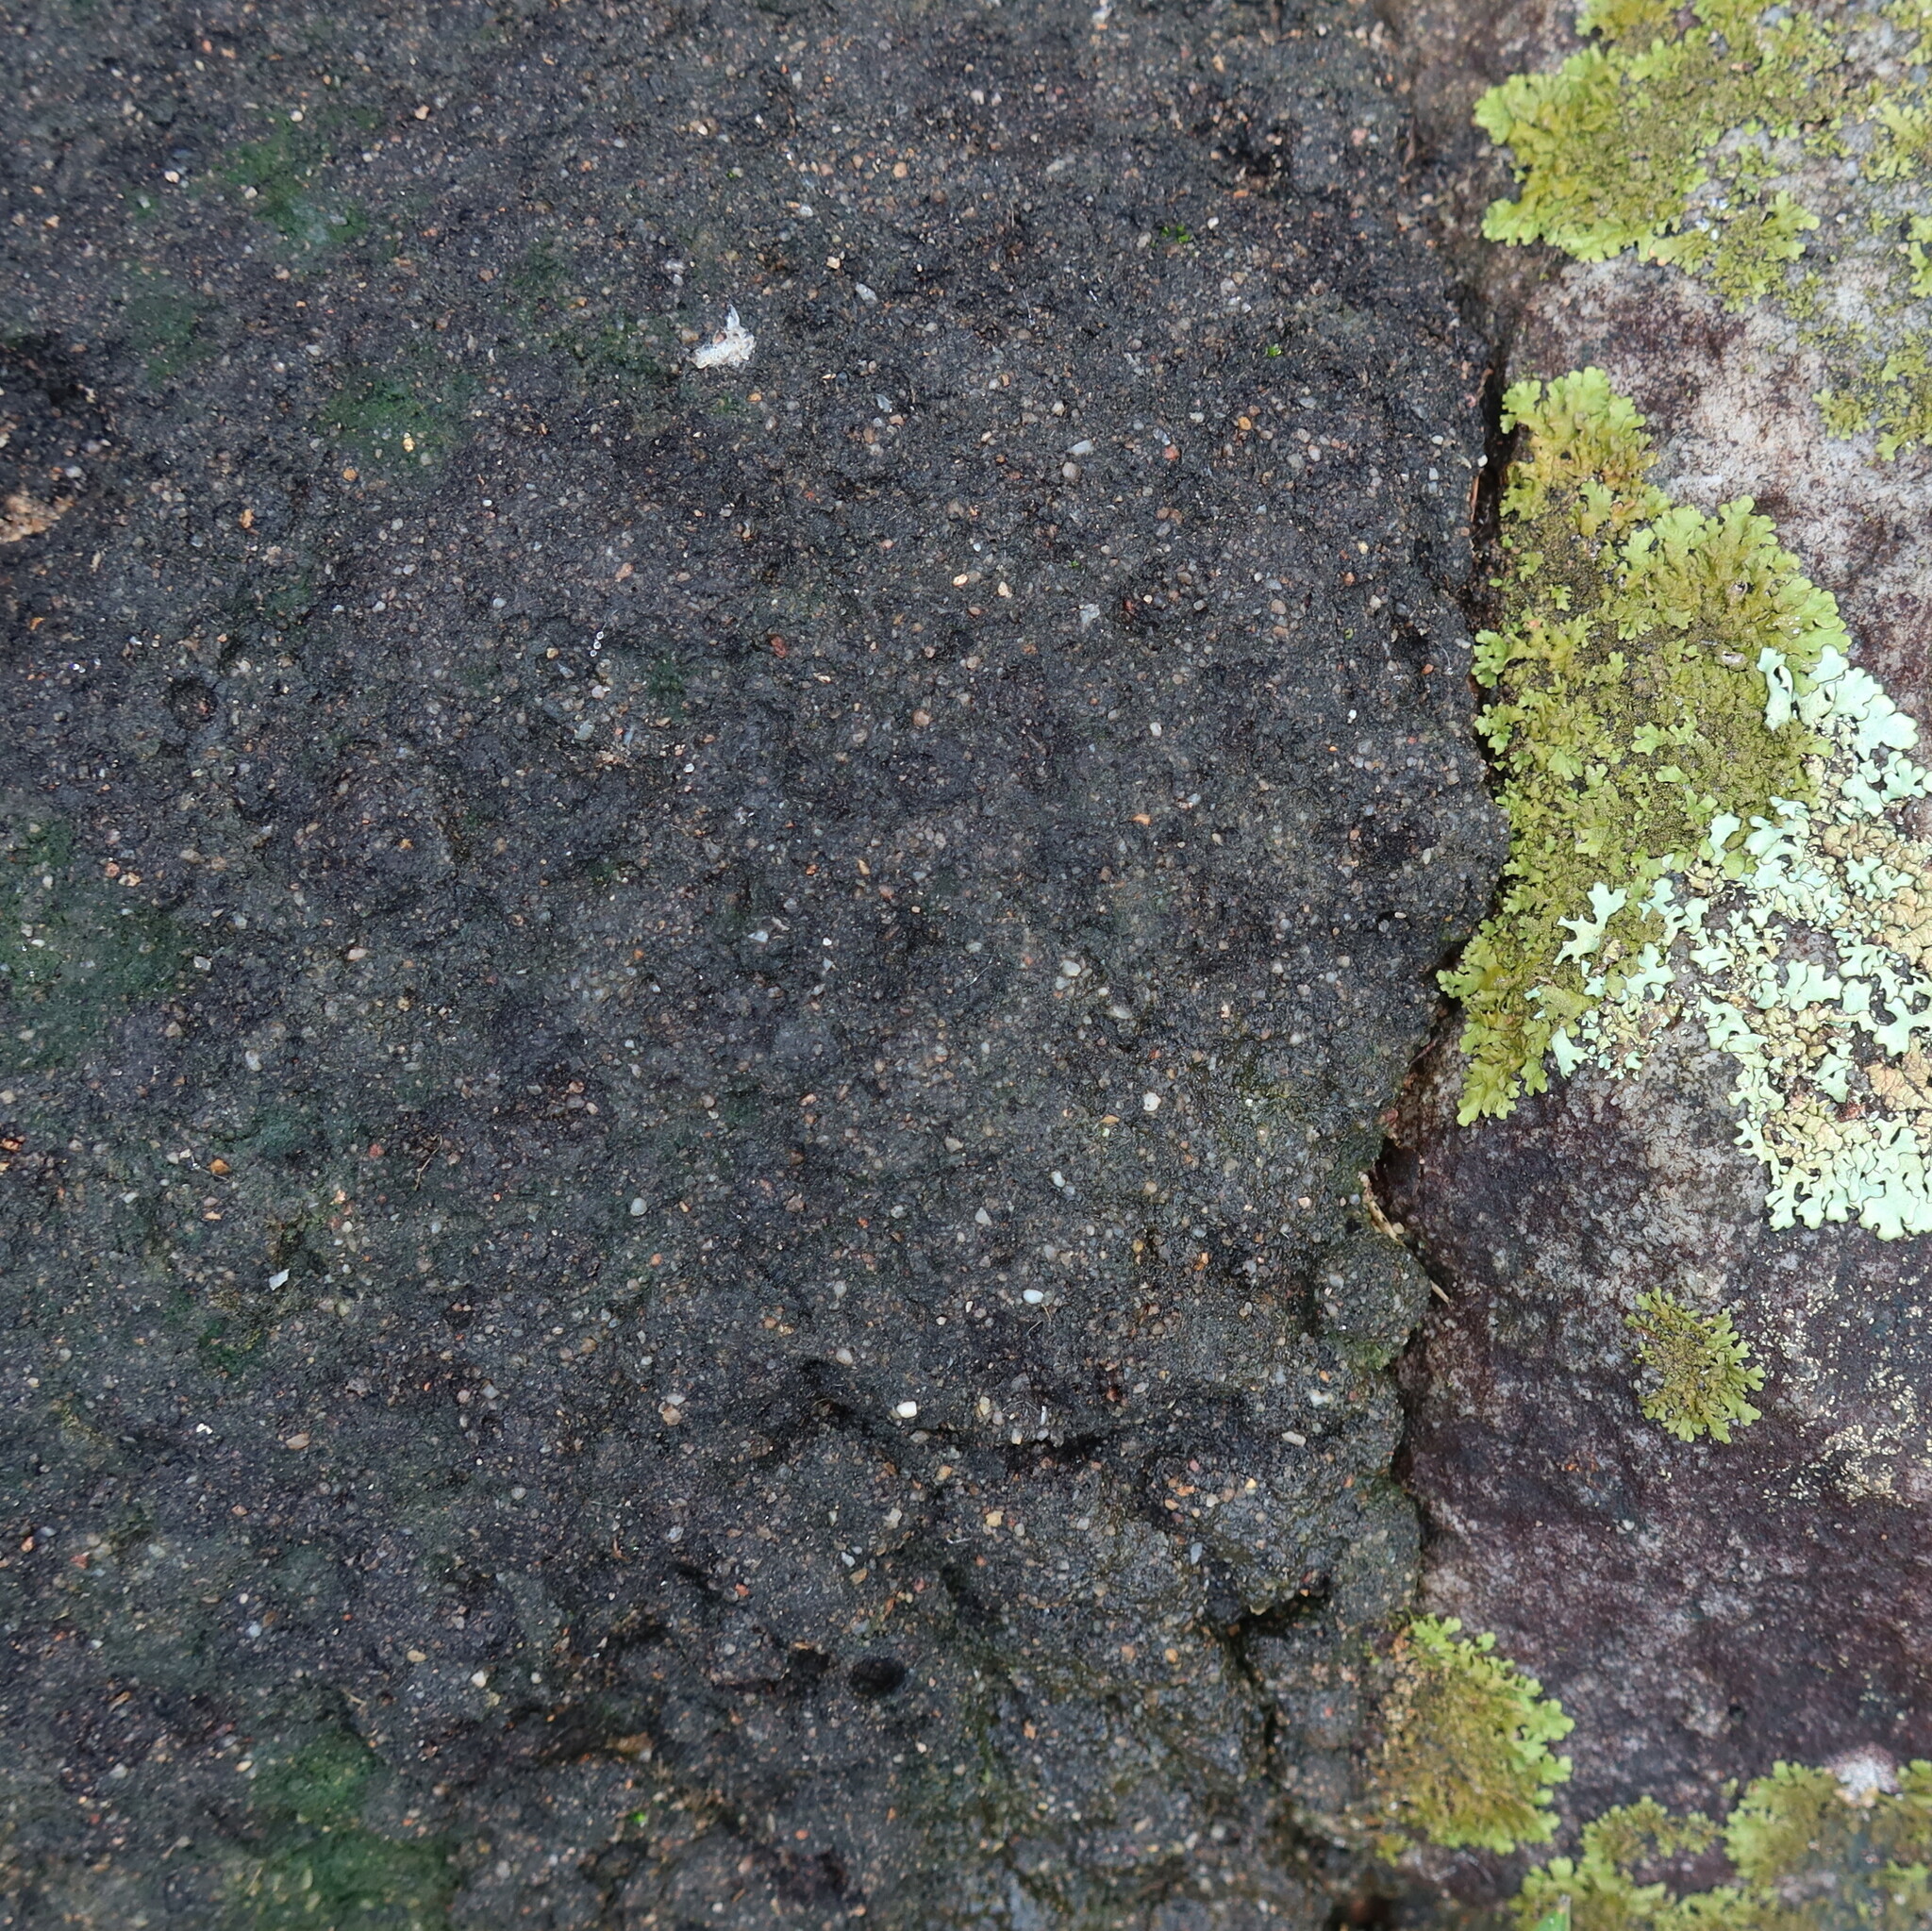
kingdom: Animalia
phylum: Arthropoda
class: Insecta
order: Blattodea
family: Termitidae
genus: Amitermes
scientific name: Amitermes hastatus
